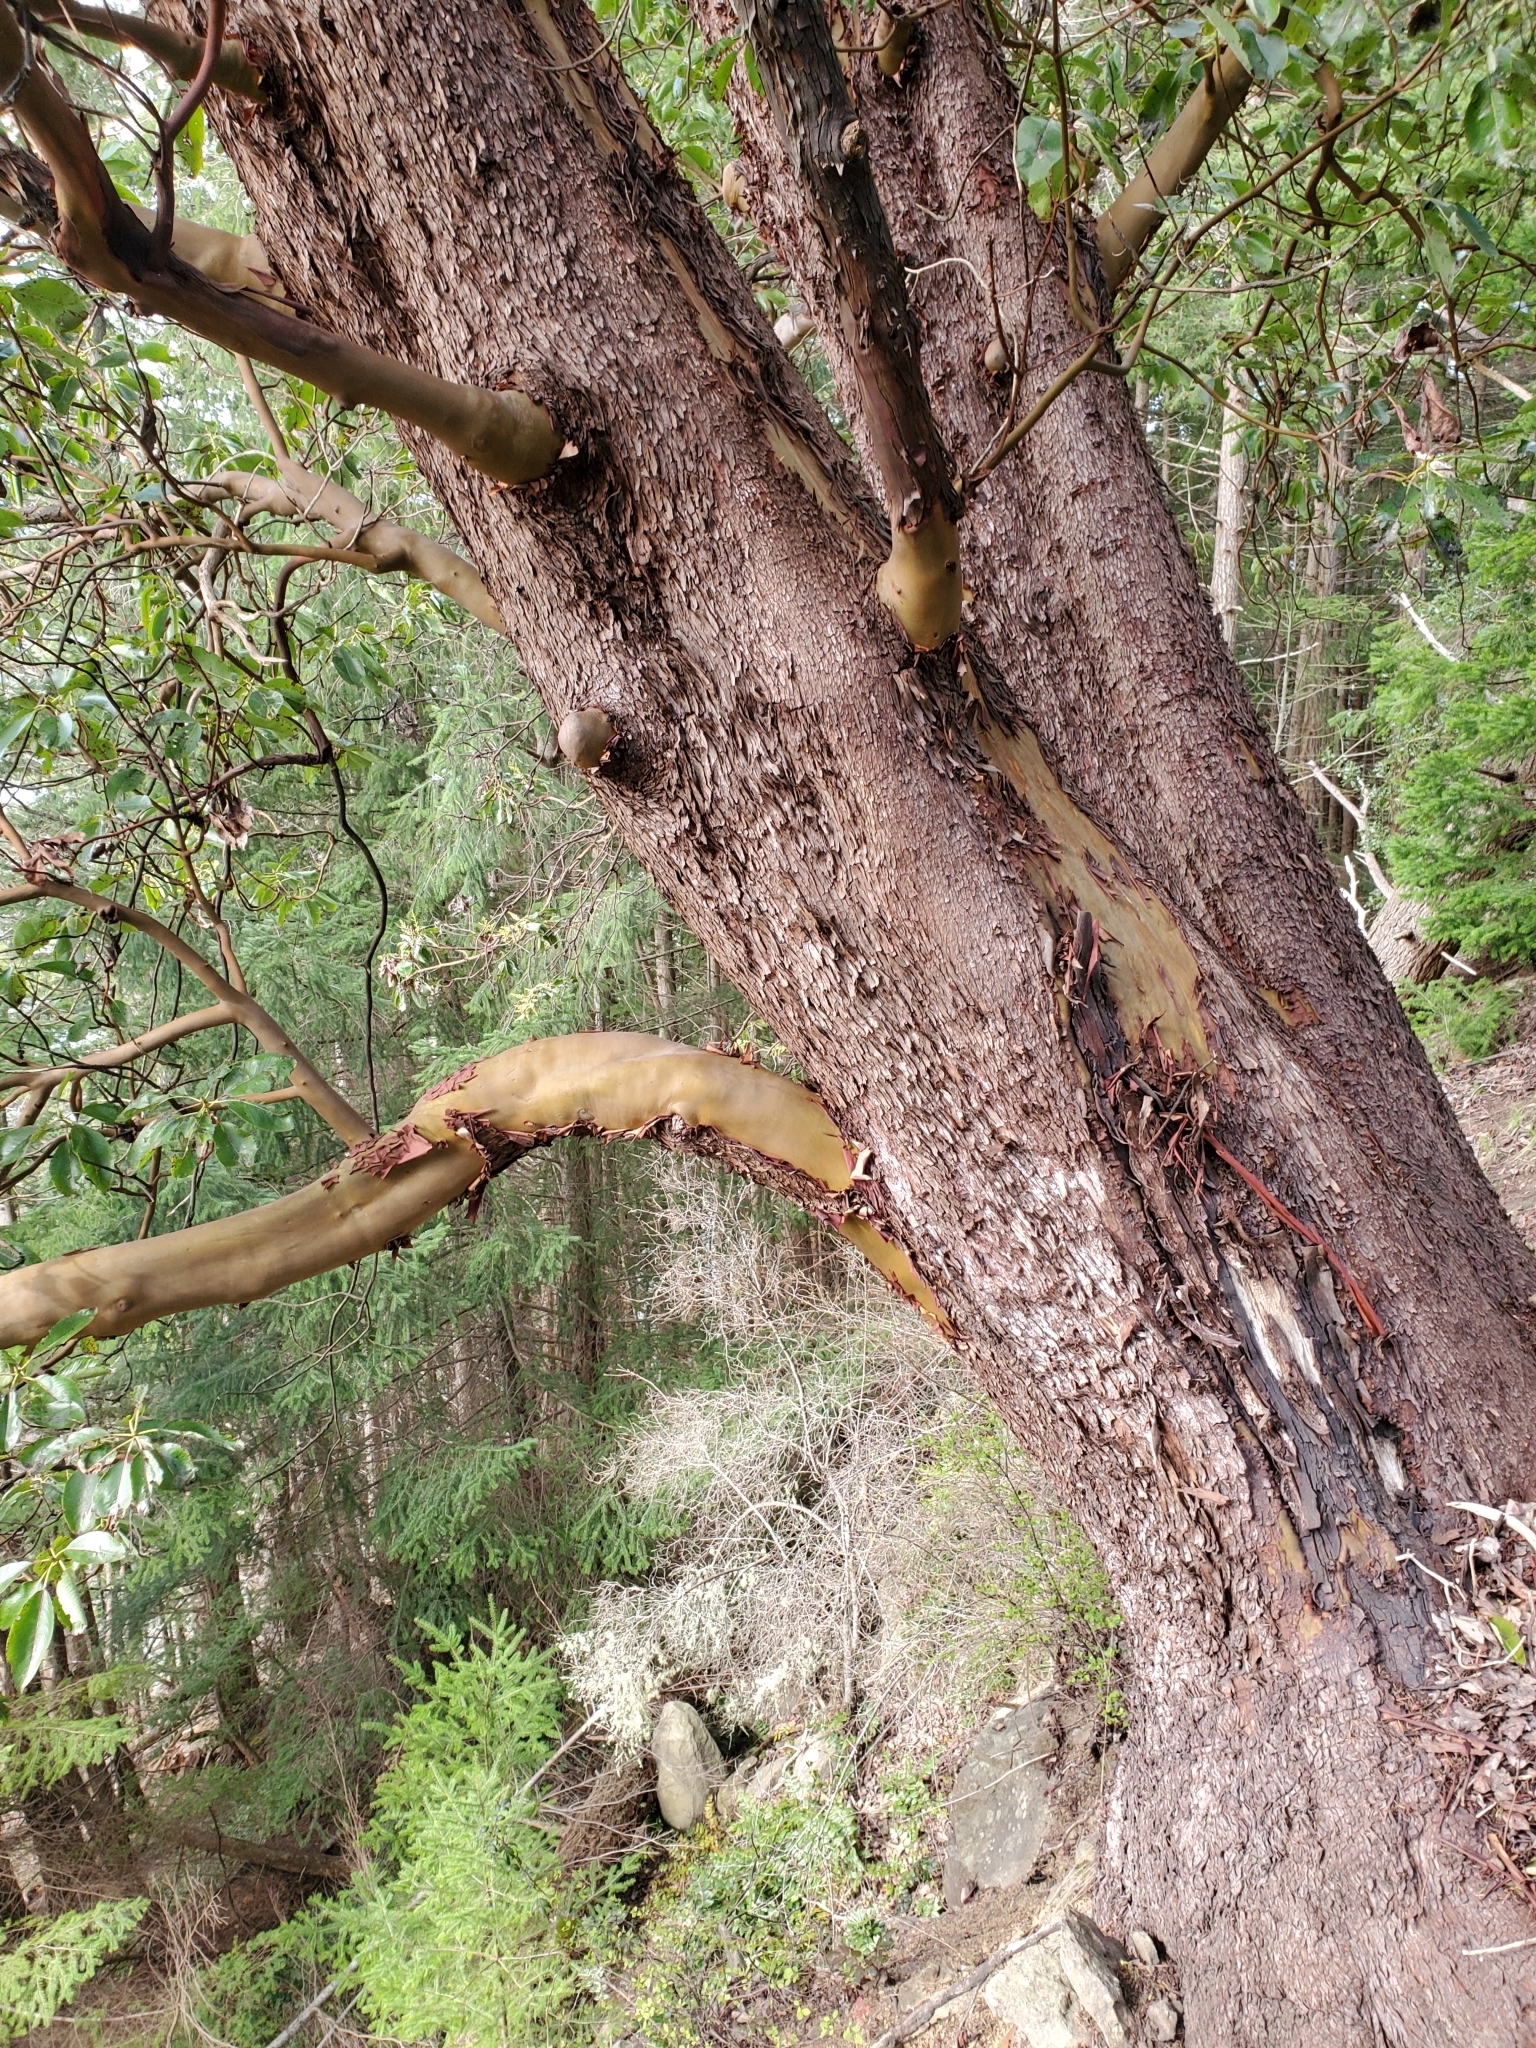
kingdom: Plantae
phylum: Tracheophyta
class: Magnoliopsida
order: Ericales
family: Ericaceae
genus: Arbutus
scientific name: Arbutus menziesii
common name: Pacific madrone
